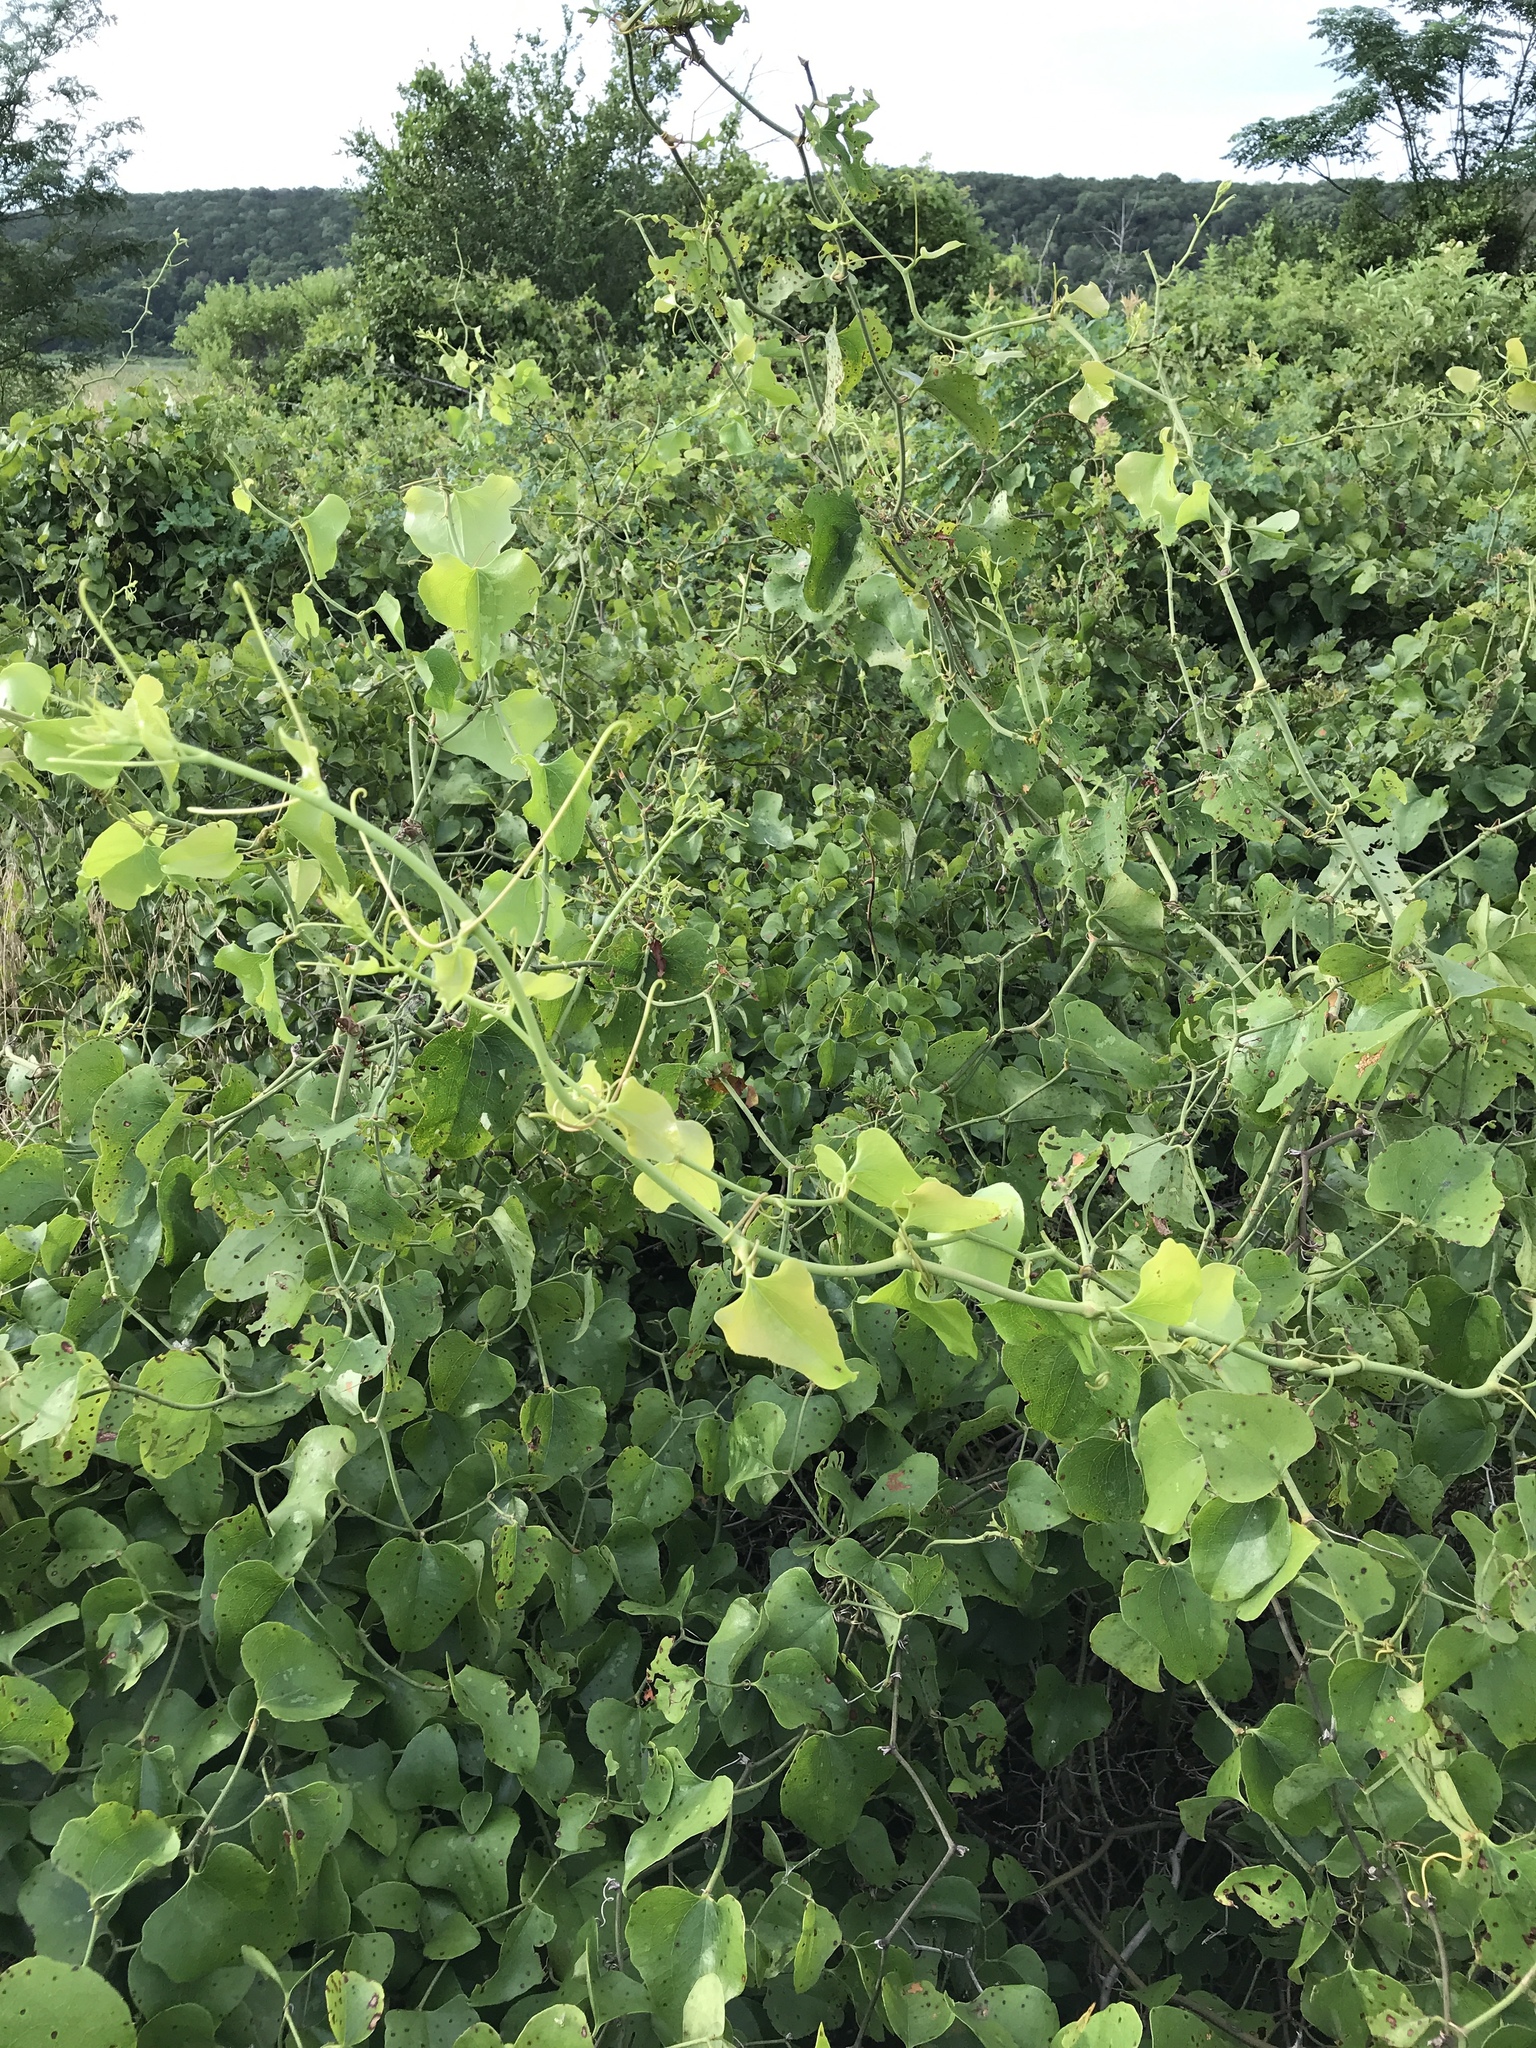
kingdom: Plantae
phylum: Tracheophyta
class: Liliopsida
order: Liliales
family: Smilacaceae
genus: Smilax
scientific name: Smilax bona-nox
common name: Catbrier
